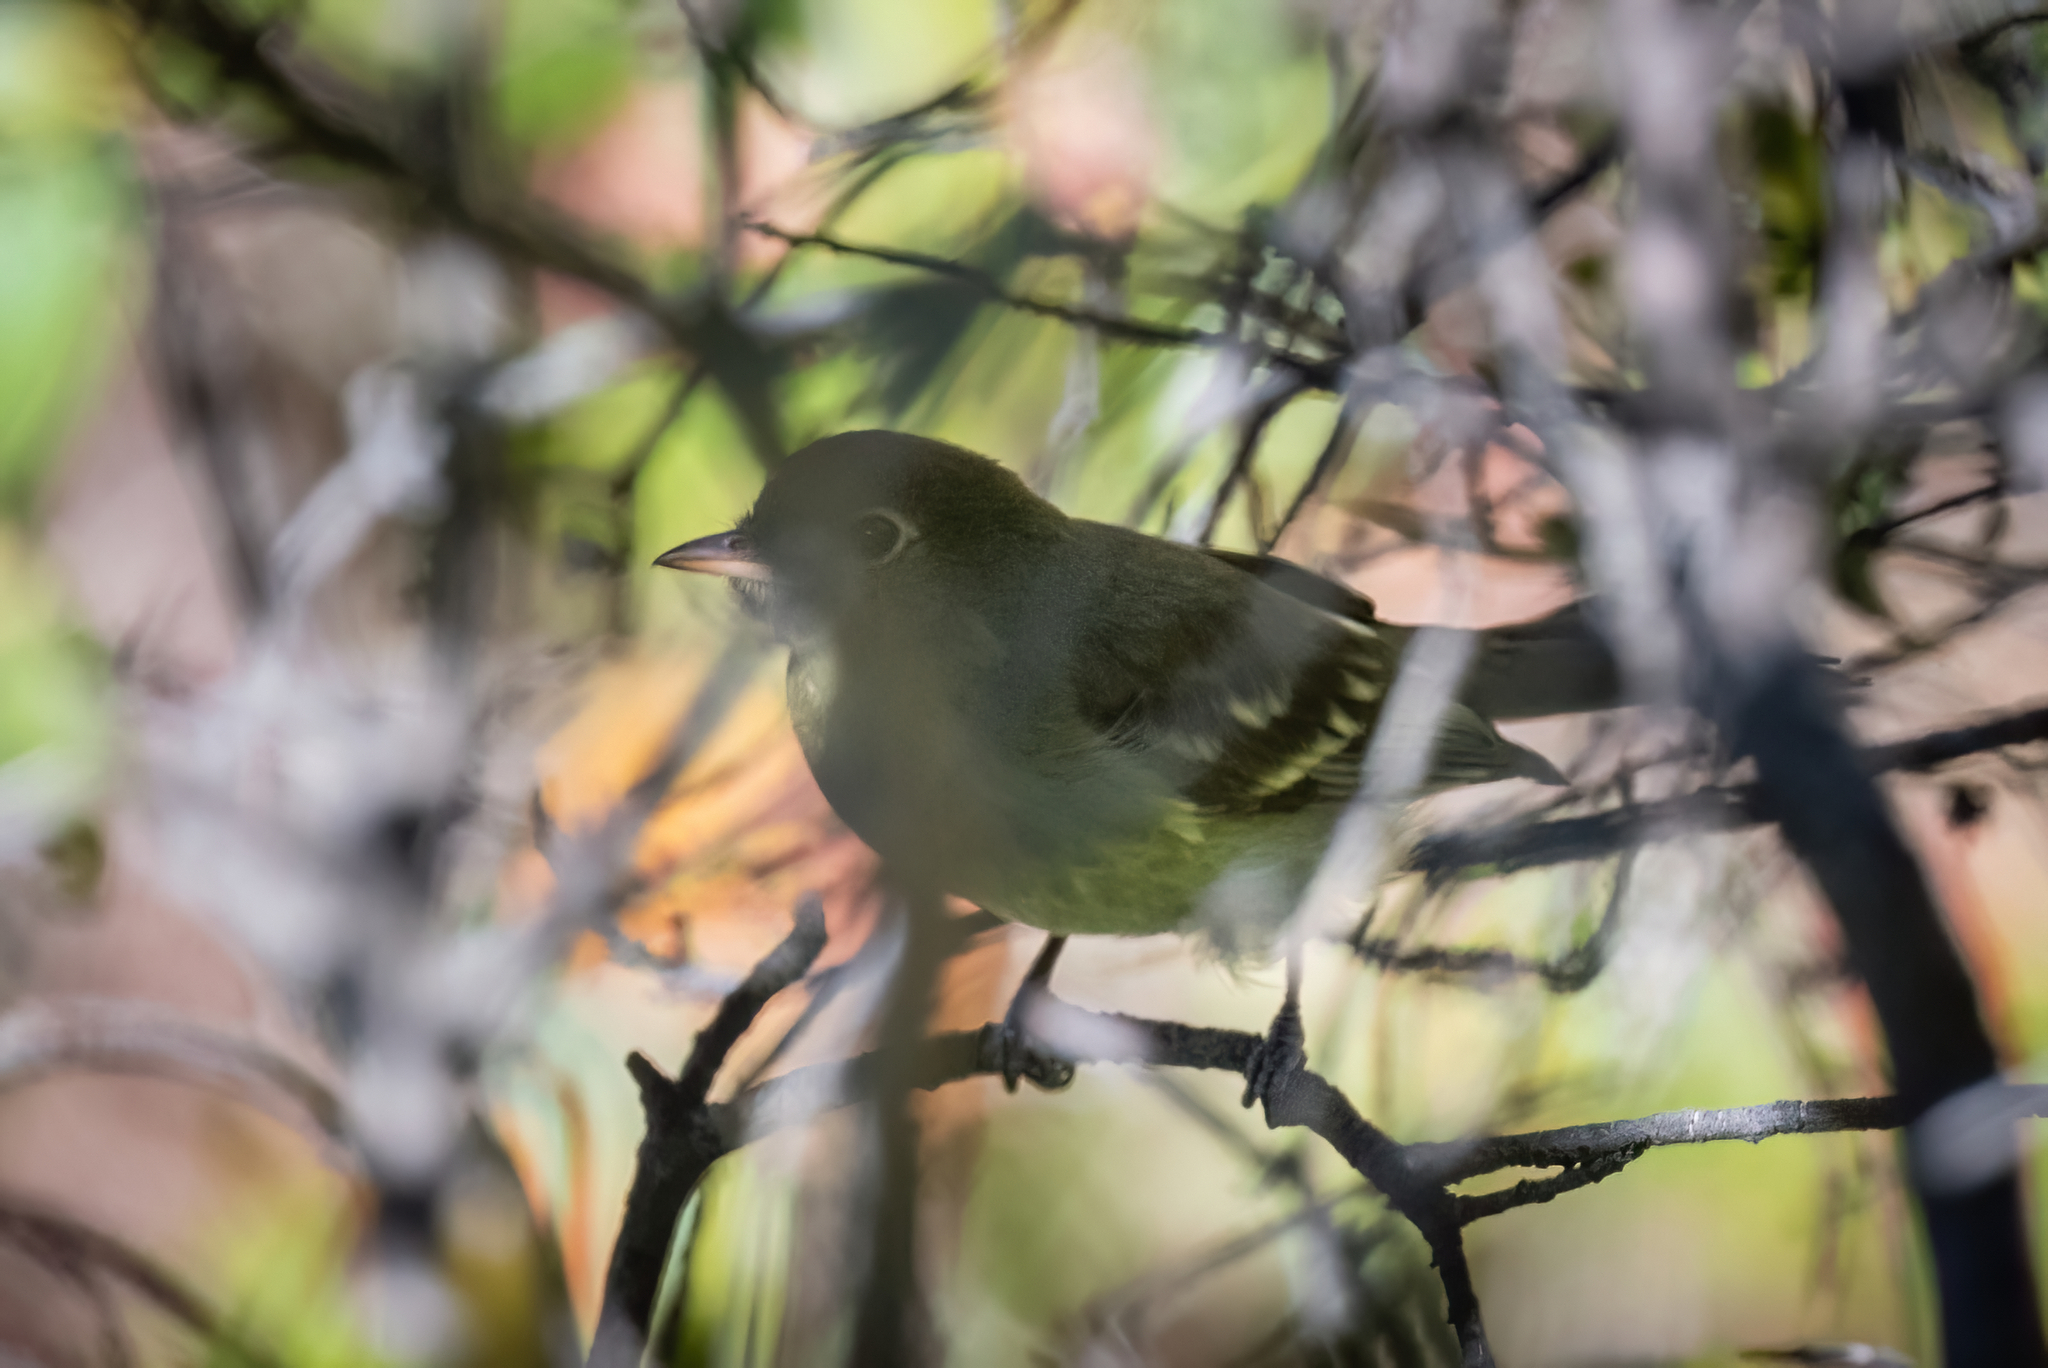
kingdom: Animalia
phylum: Chordata
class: Aves
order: Passeriformes
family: Tyrannidae
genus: Elaenia
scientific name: Elaenia frantzii
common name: Mountain elaenia
